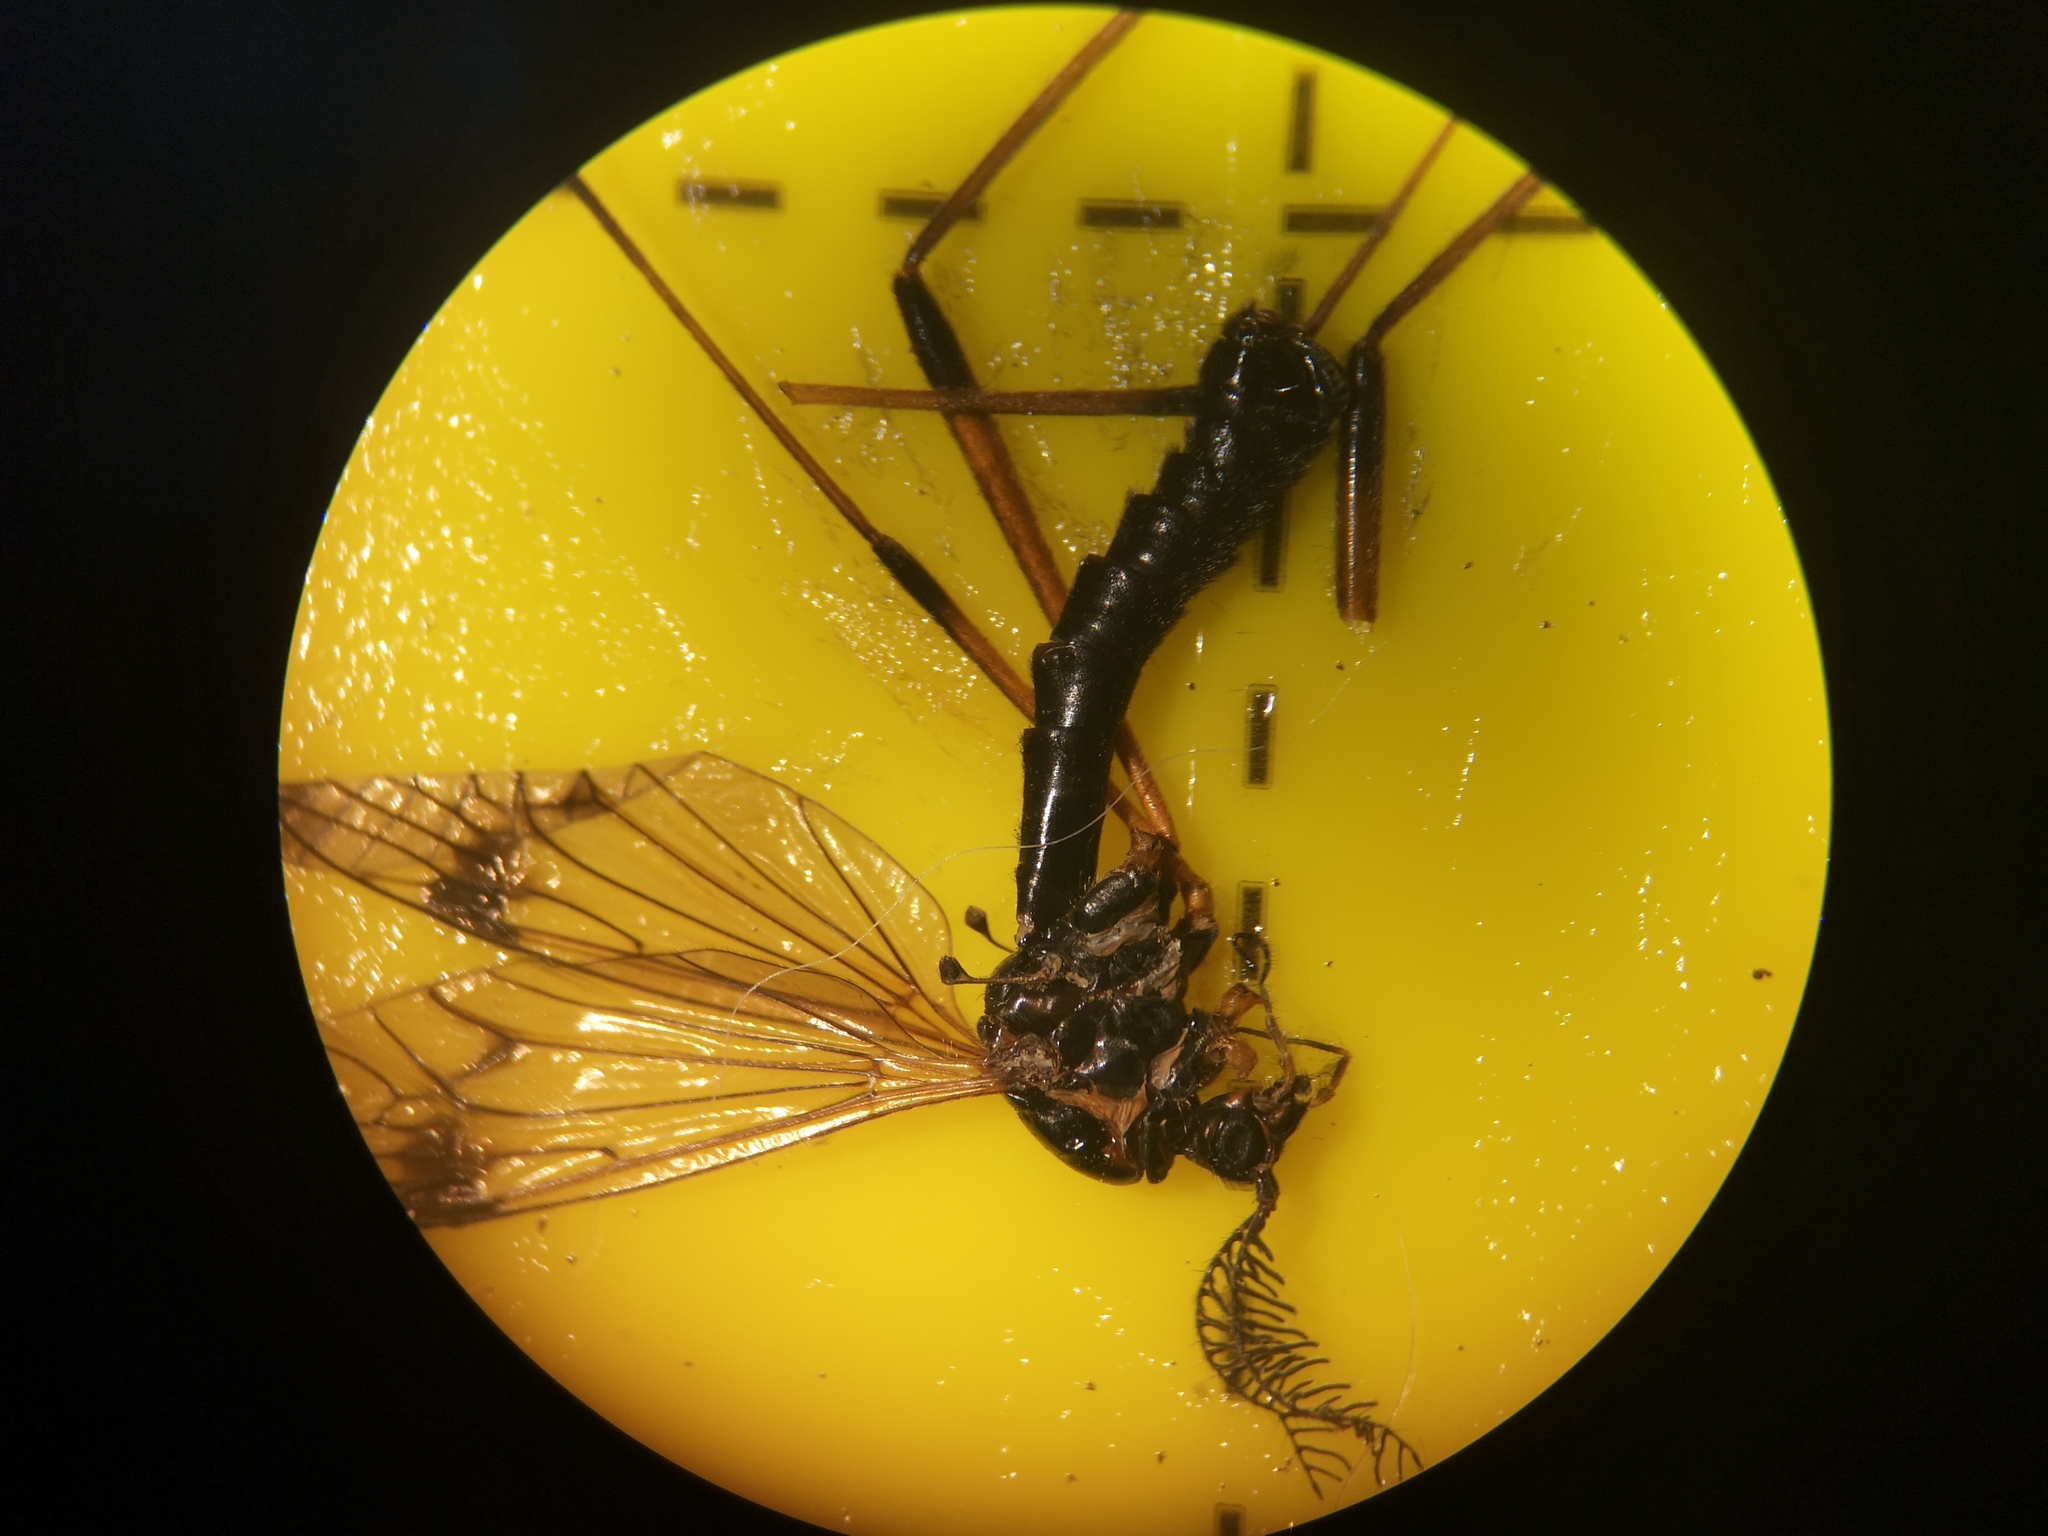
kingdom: Animalia
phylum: Arthropoda
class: Insecta
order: Diptera
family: Tipulidae
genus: Dictenidia
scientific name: Dictenidia bimaculata
